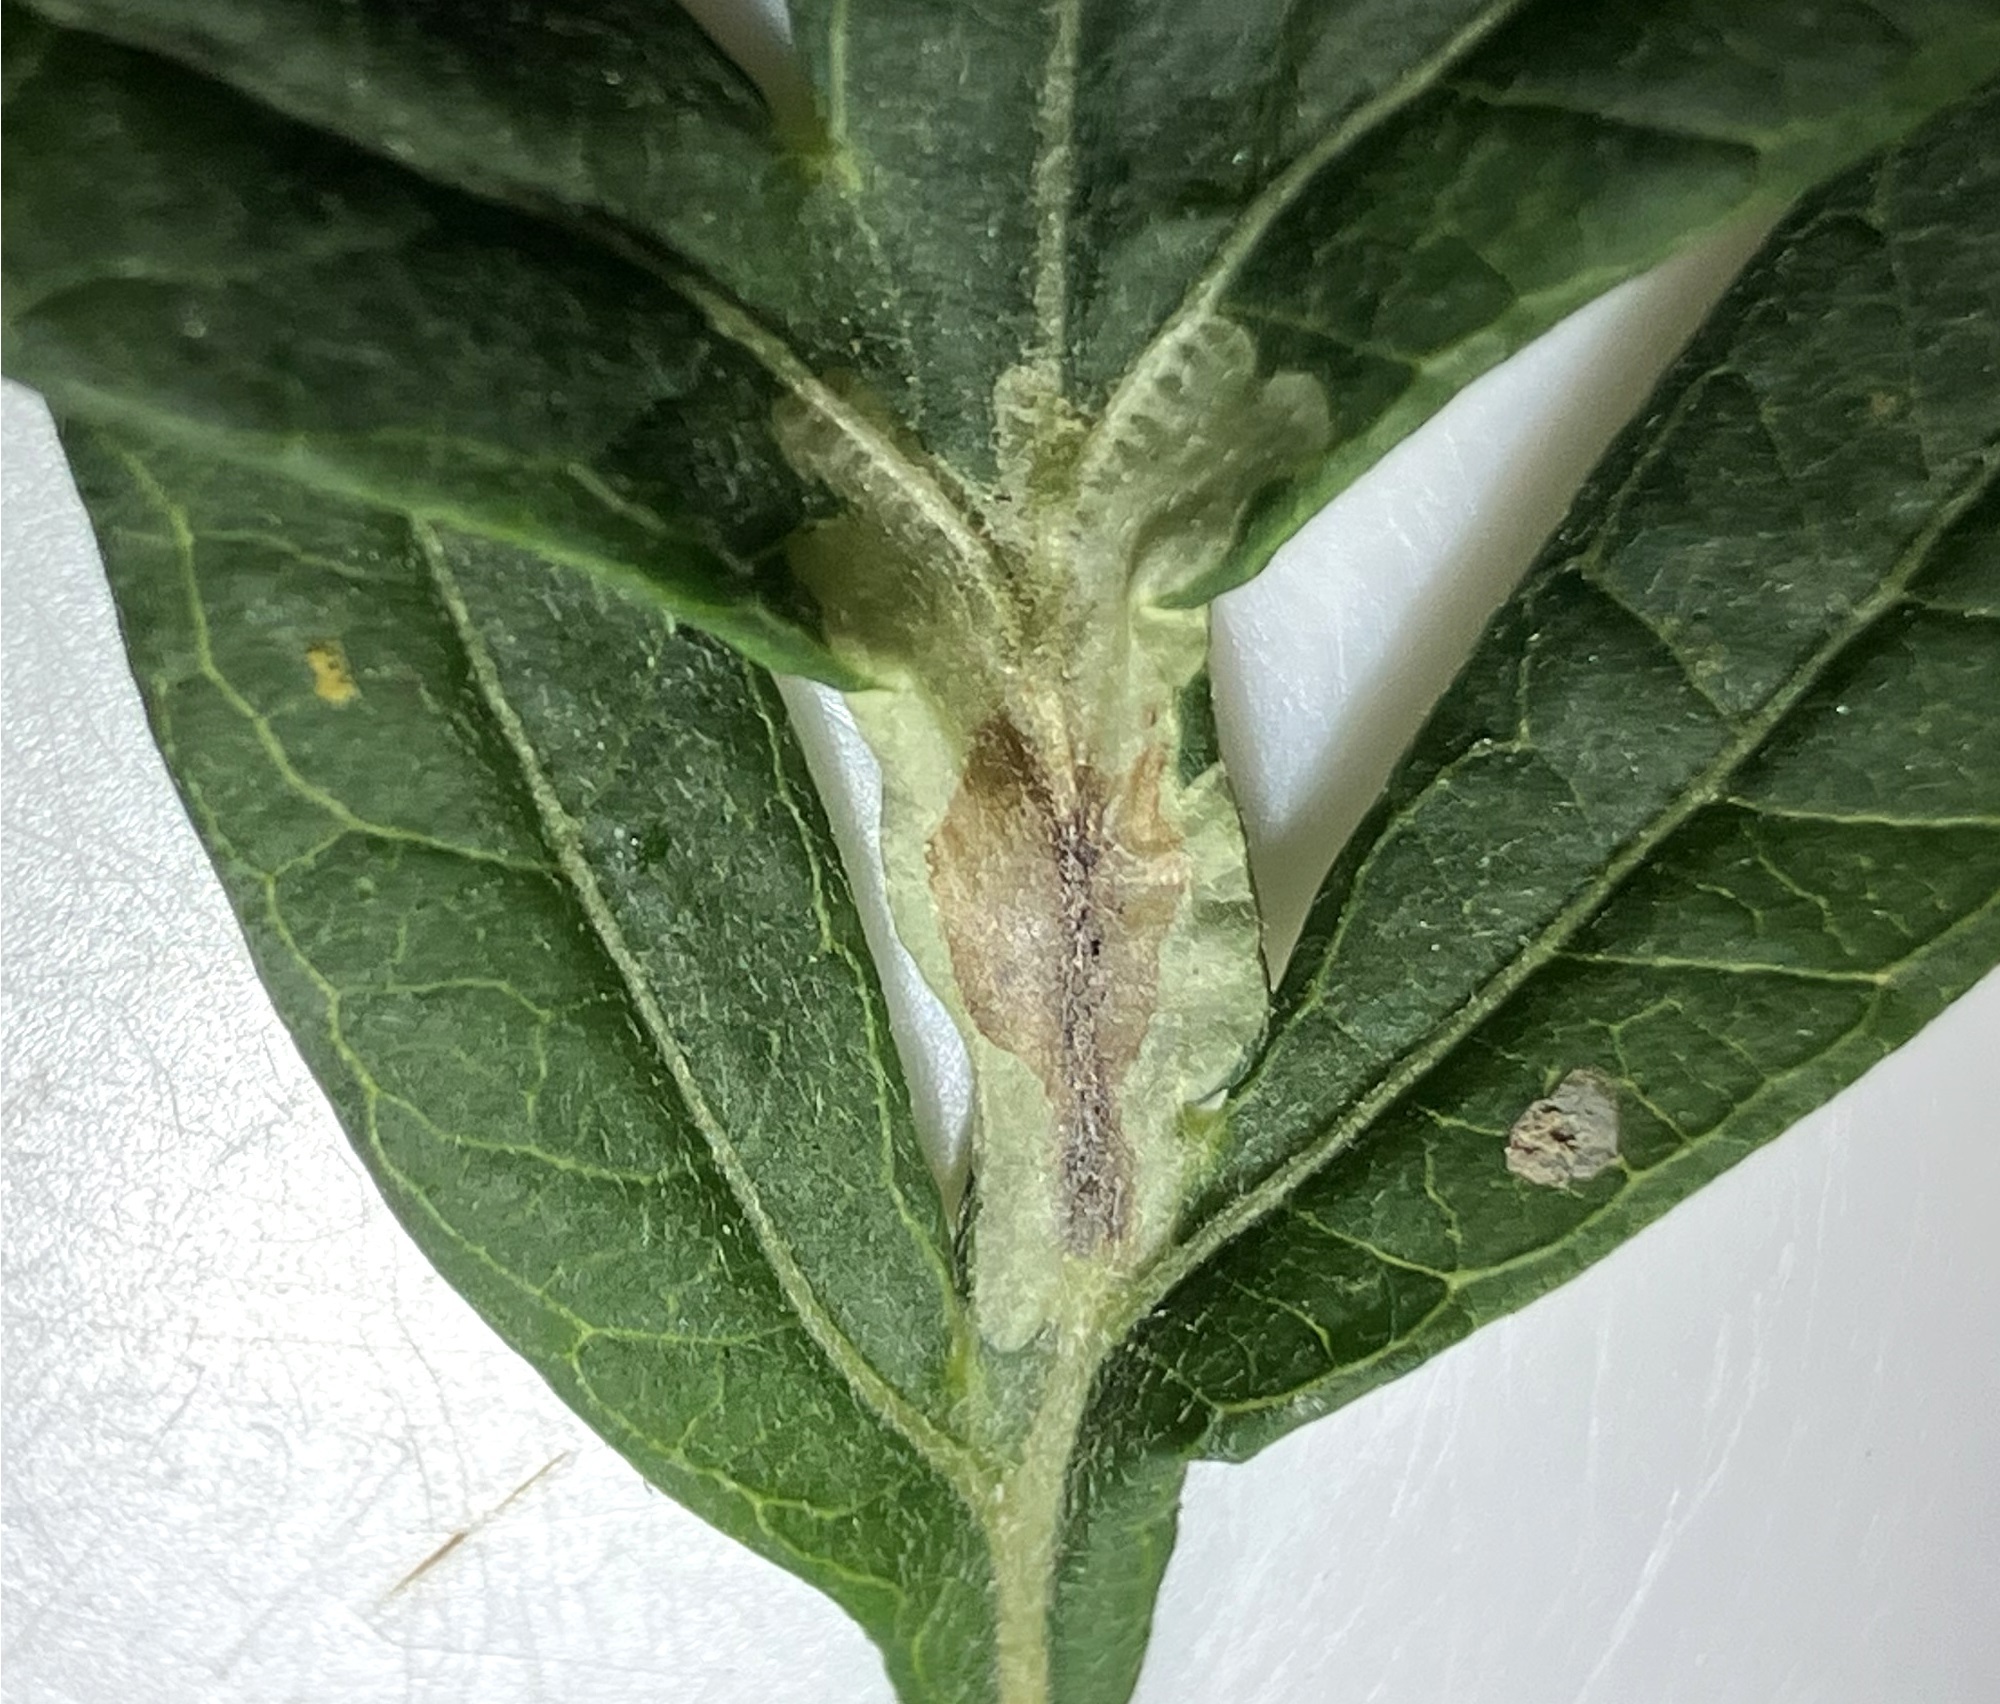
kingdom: Animalia
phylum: Arthropoda
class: Insecta
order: Diptera
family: Agromyzidae
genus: Calycomyza
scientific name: Calycomyza platyptera
